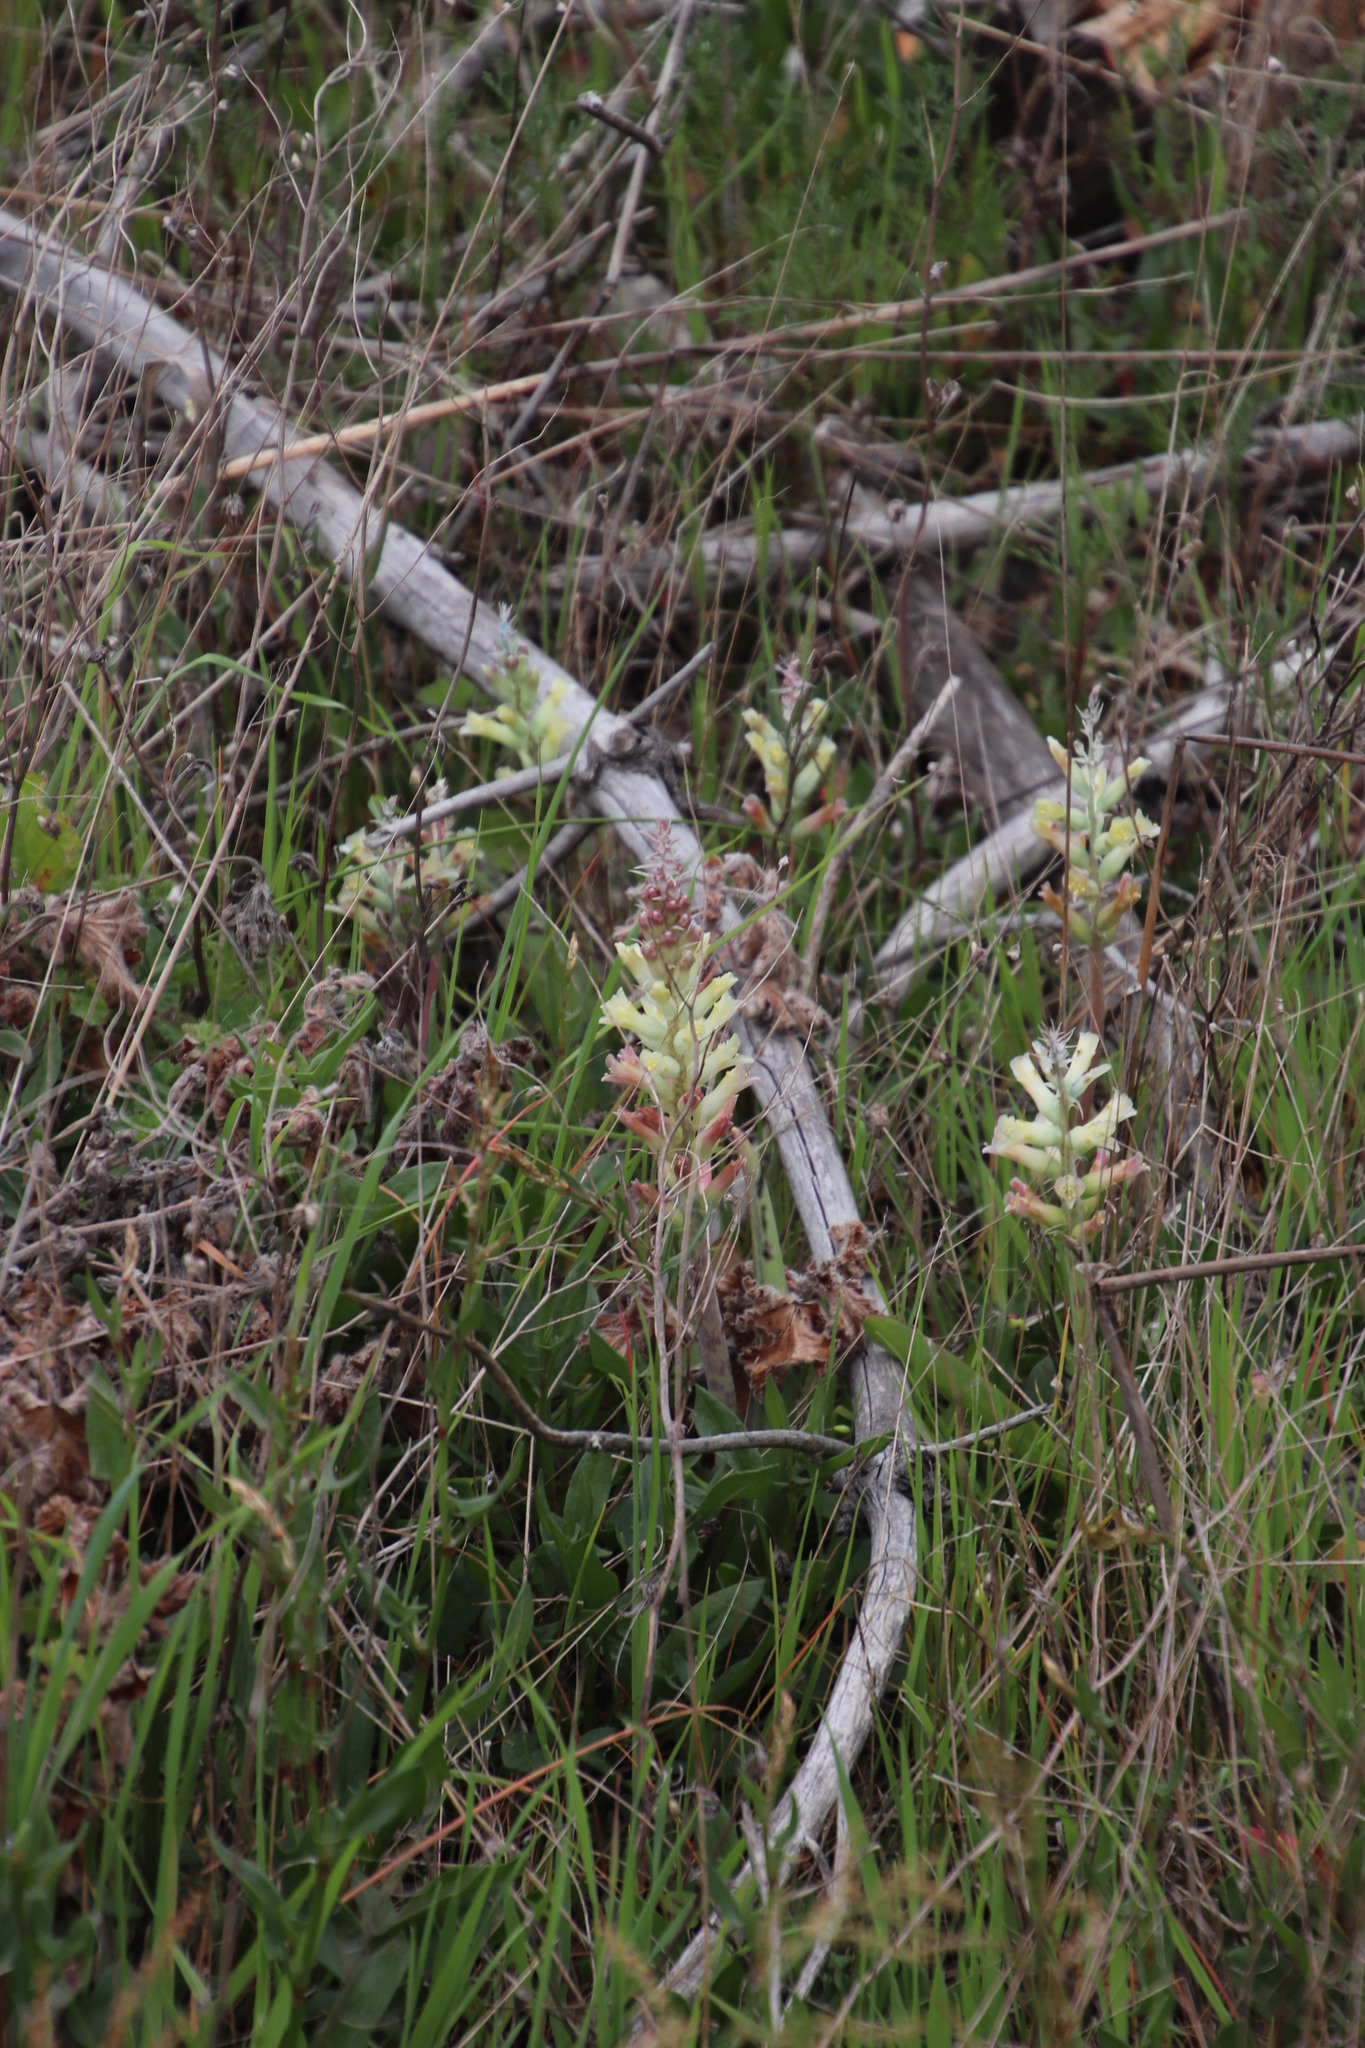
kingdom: Plantae
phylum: Tracheophyta
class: Liliopsida
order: Asparagales
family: Asparagaceae
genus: Lachenalia
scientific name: Lachenalia orchioides
